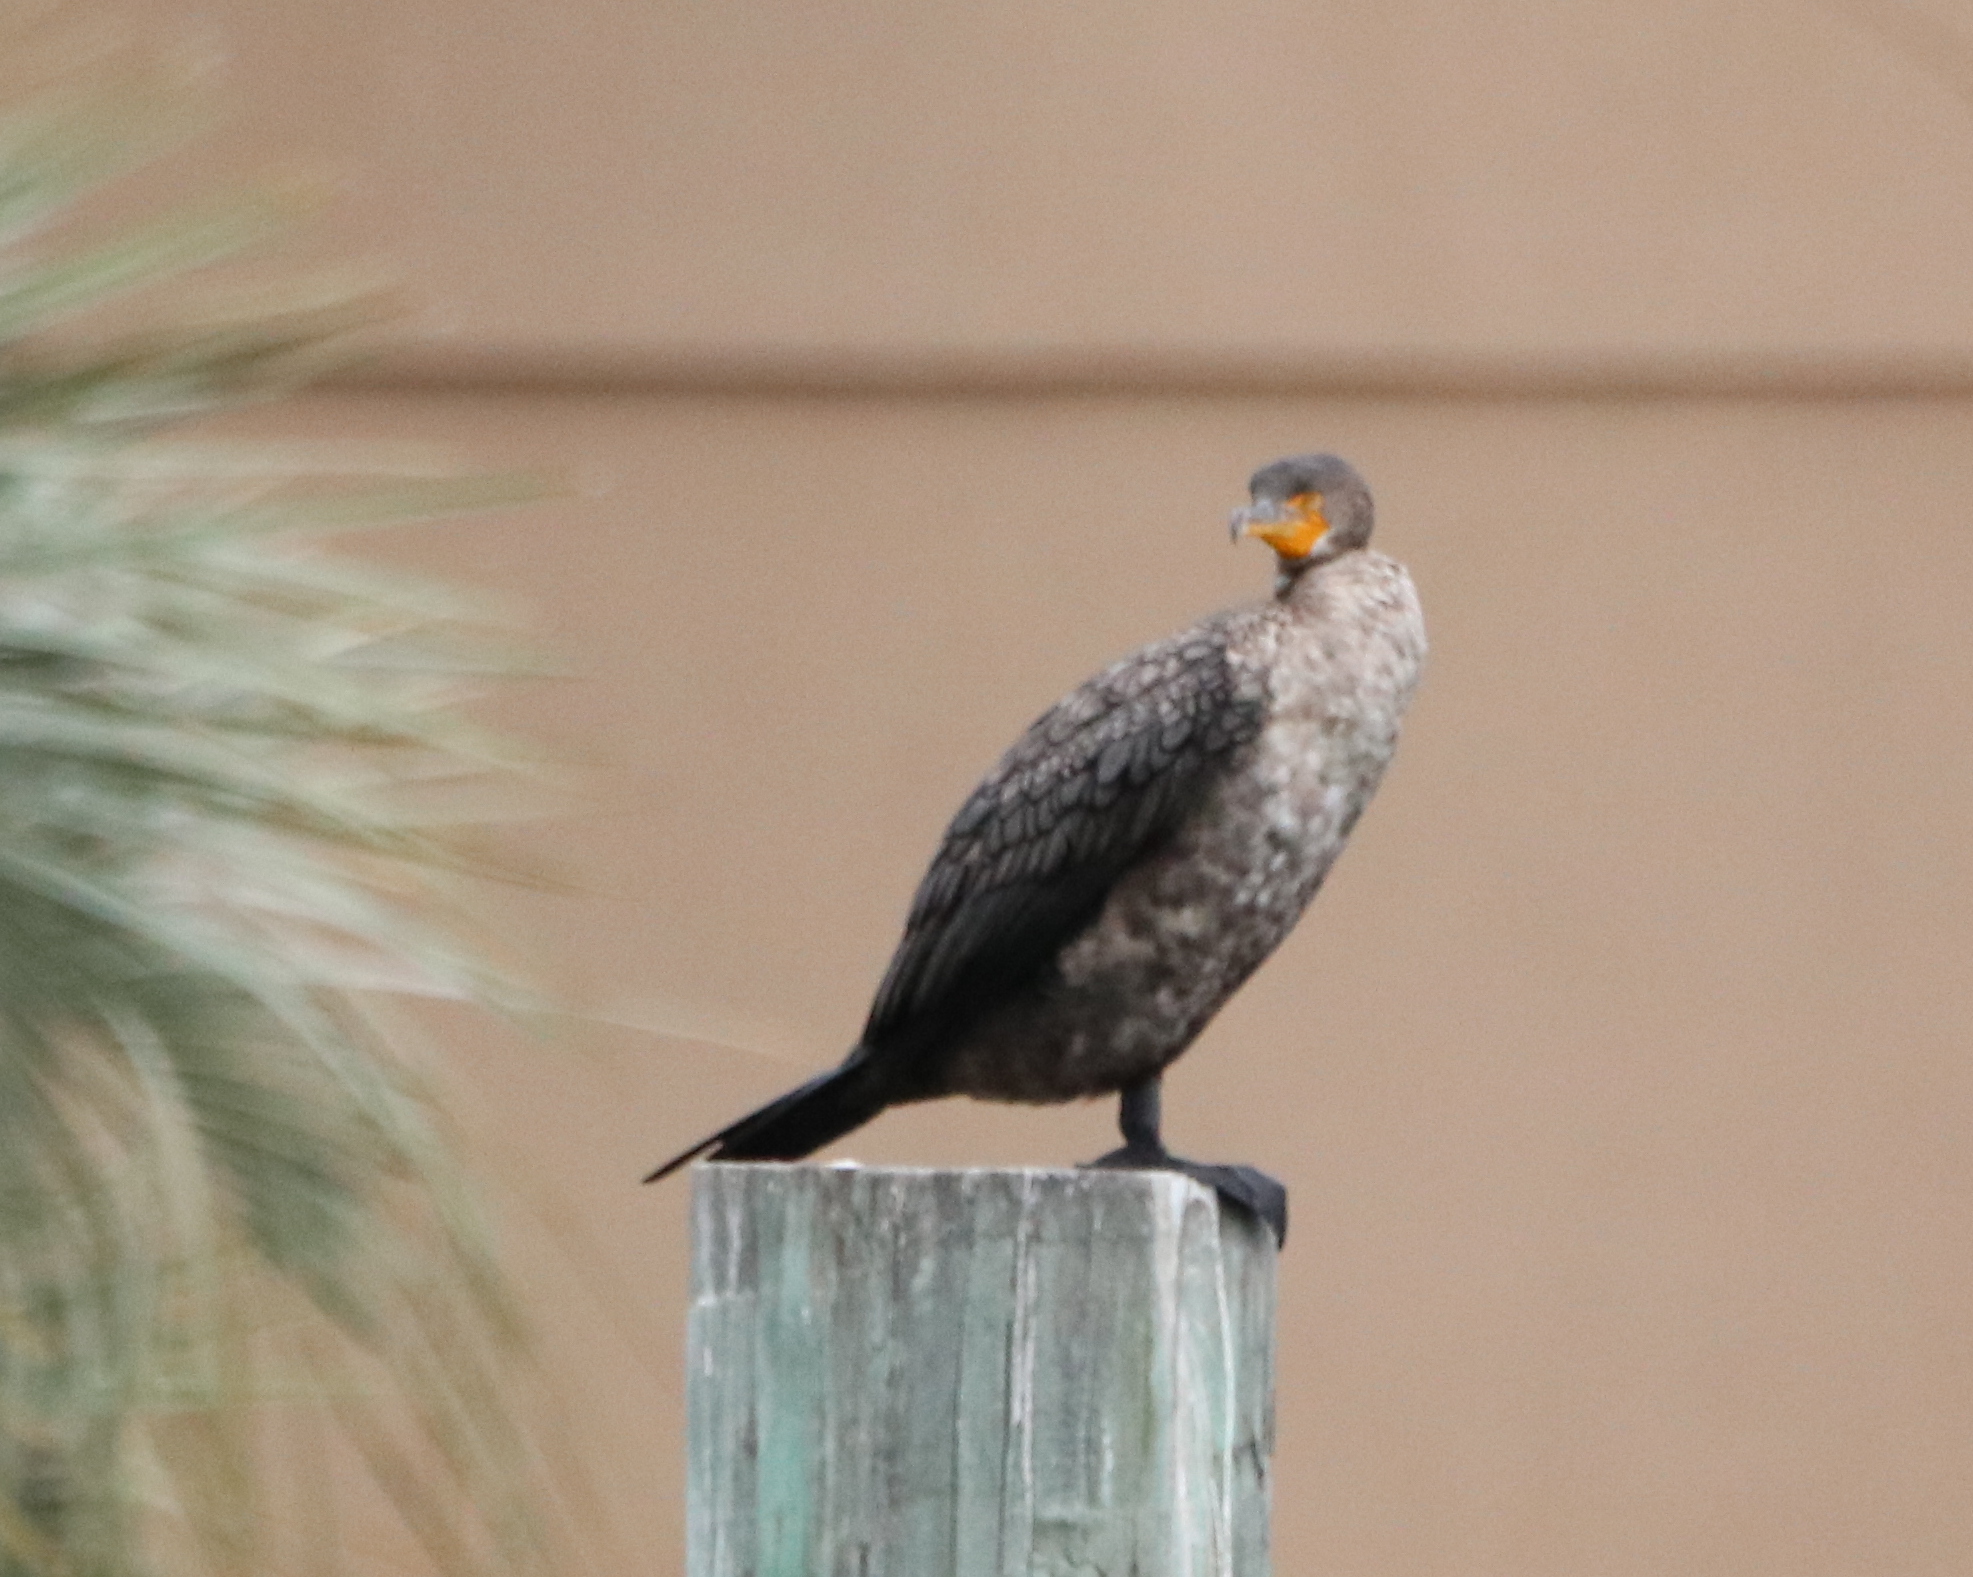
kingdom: Animalia
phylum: Chordata
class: Aves
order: Suliformes
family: Phalacrocoracidae
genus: Phalacrocorax
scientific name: Phalacrocorax auritus
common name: Double-crested cormorant
